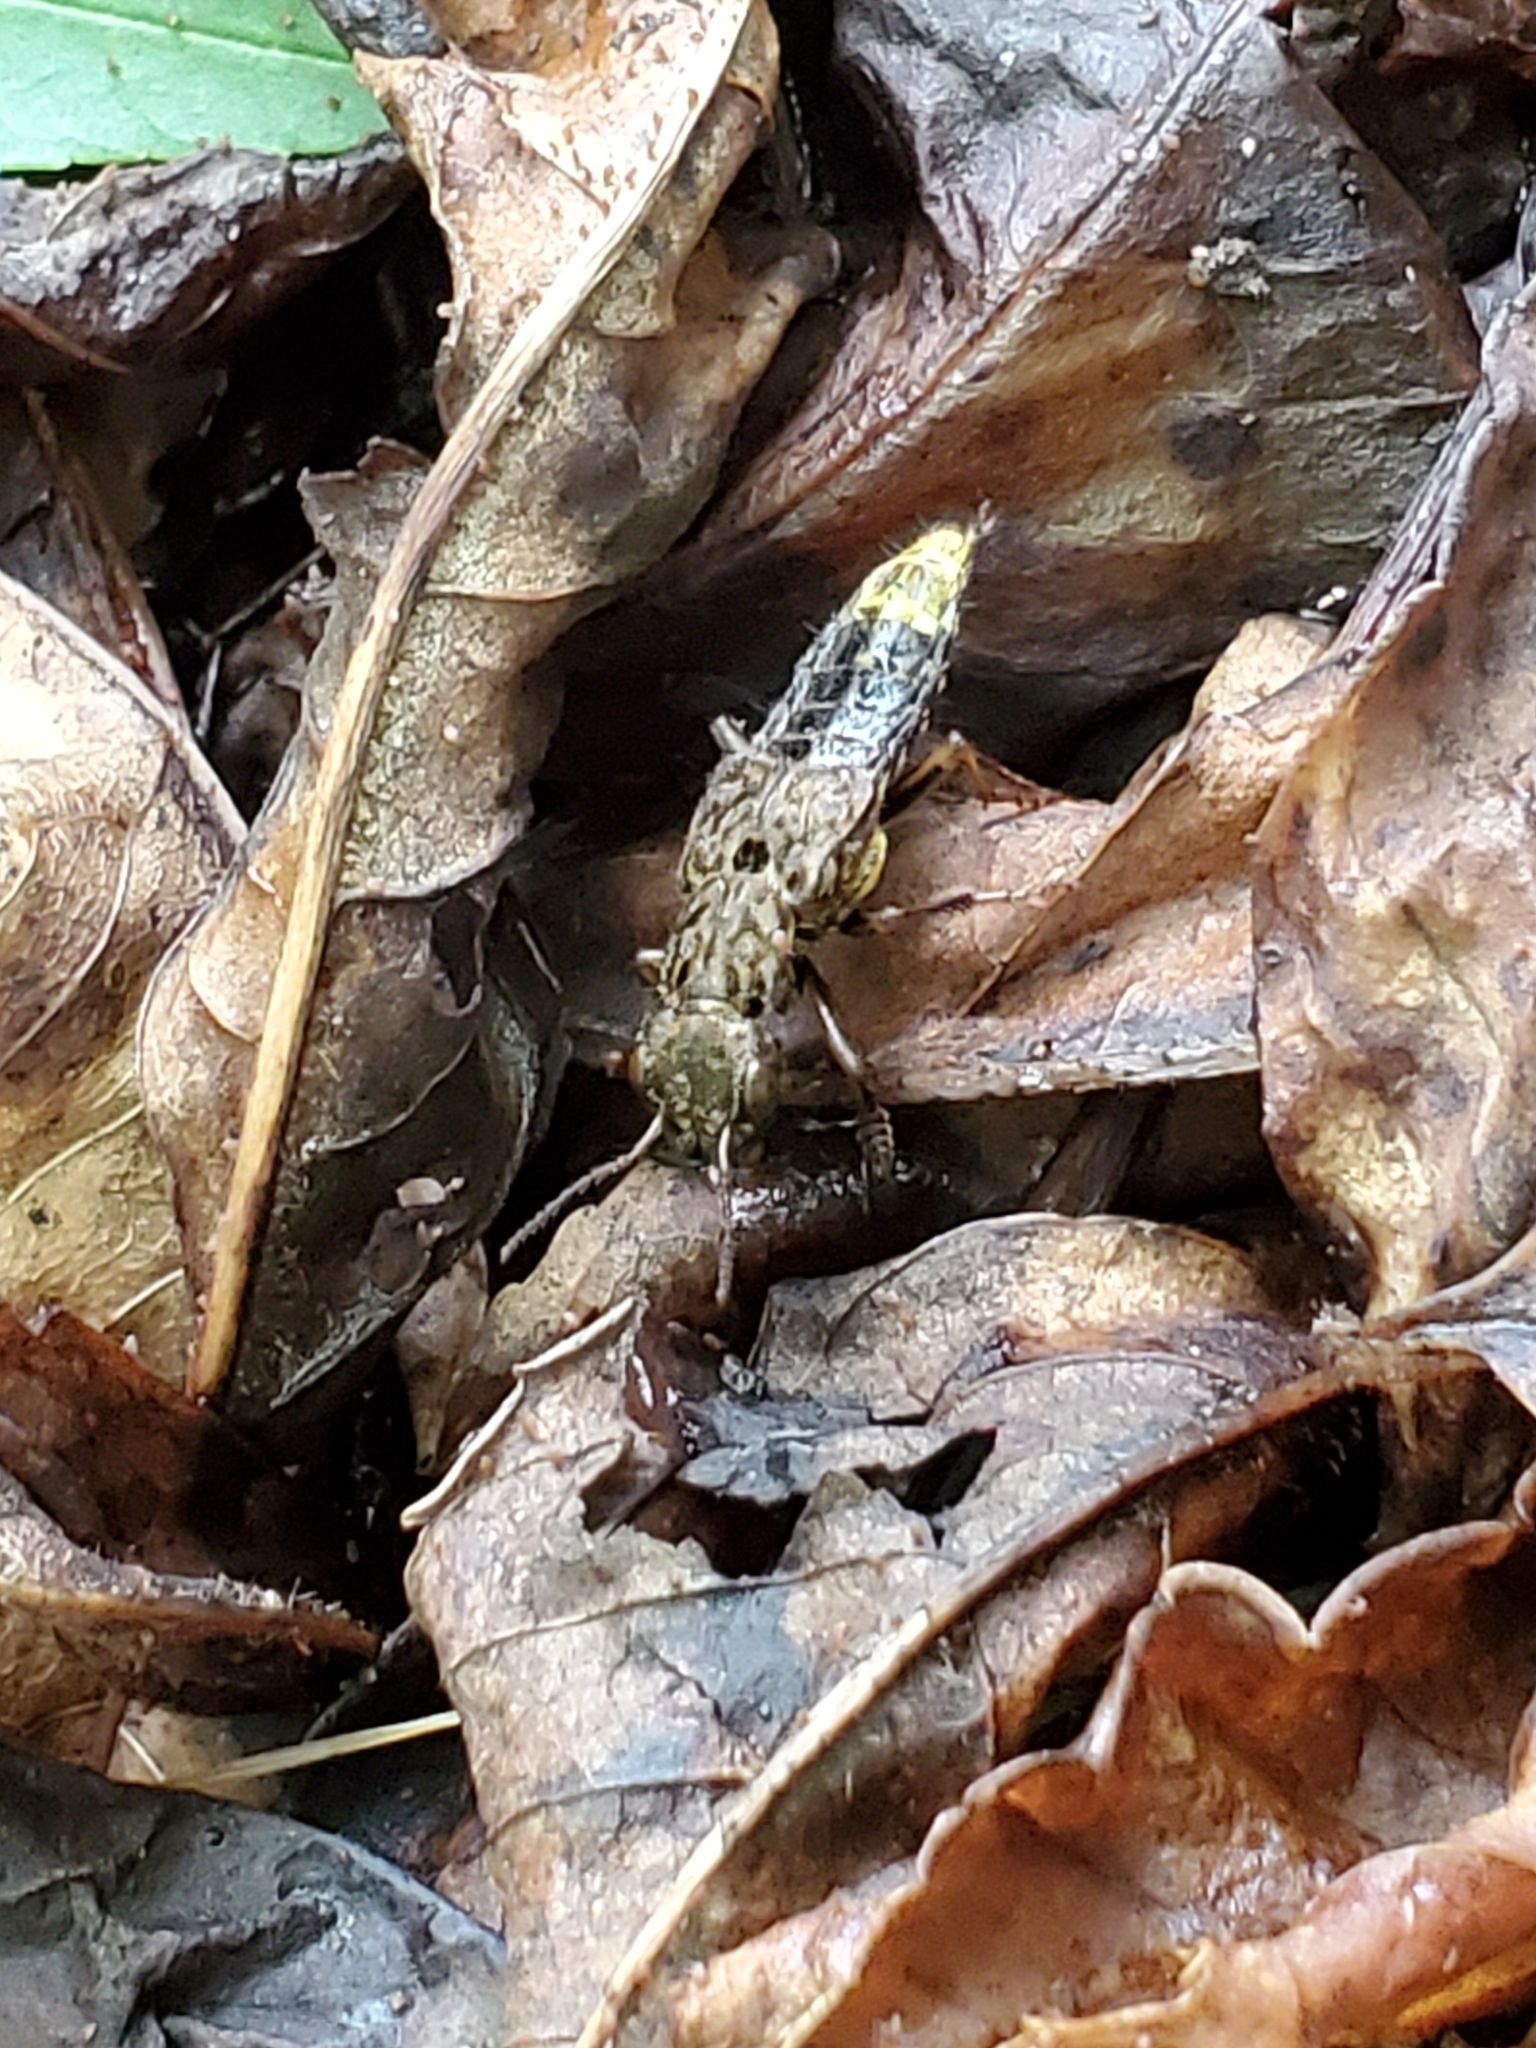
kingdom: Animalia
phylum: Arthropoda
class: Insecta
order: Coleoptera
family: Staphylinidae
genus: Ontholestes
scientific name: Ontholestes cingulatus
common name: Gold-and-brown rove beetle
